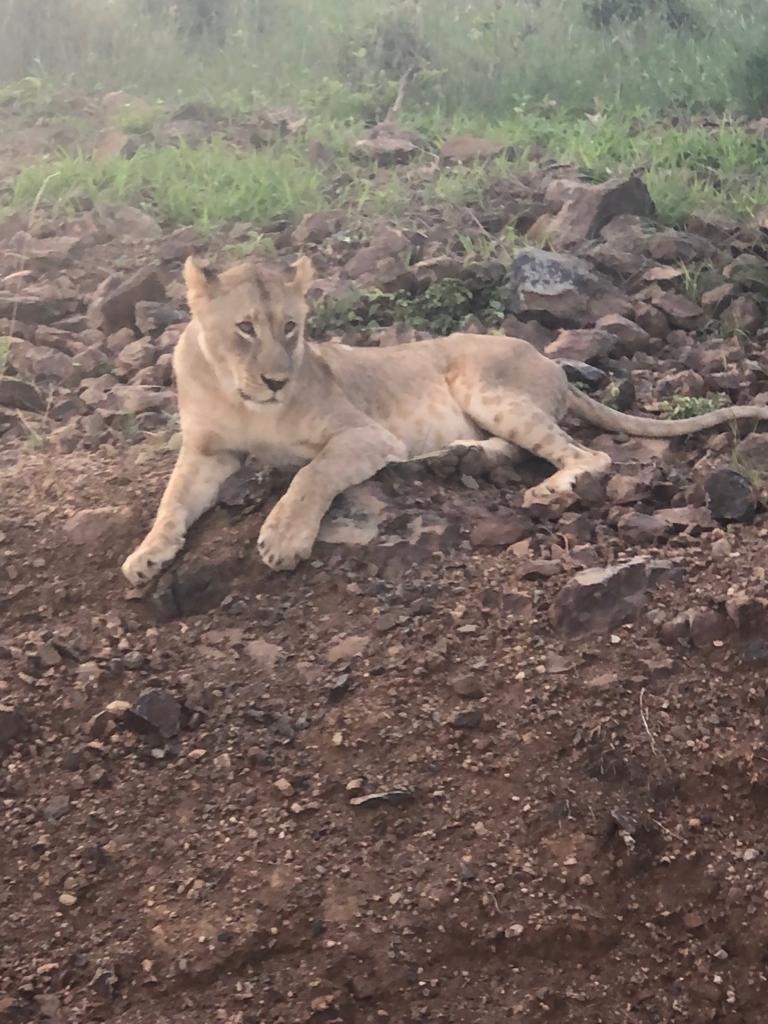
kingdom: Animalia
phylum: Chordata
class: Mammalia
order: Carnivora
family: Felidae
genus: Panthera
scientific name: Panthera leo
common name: Lion
